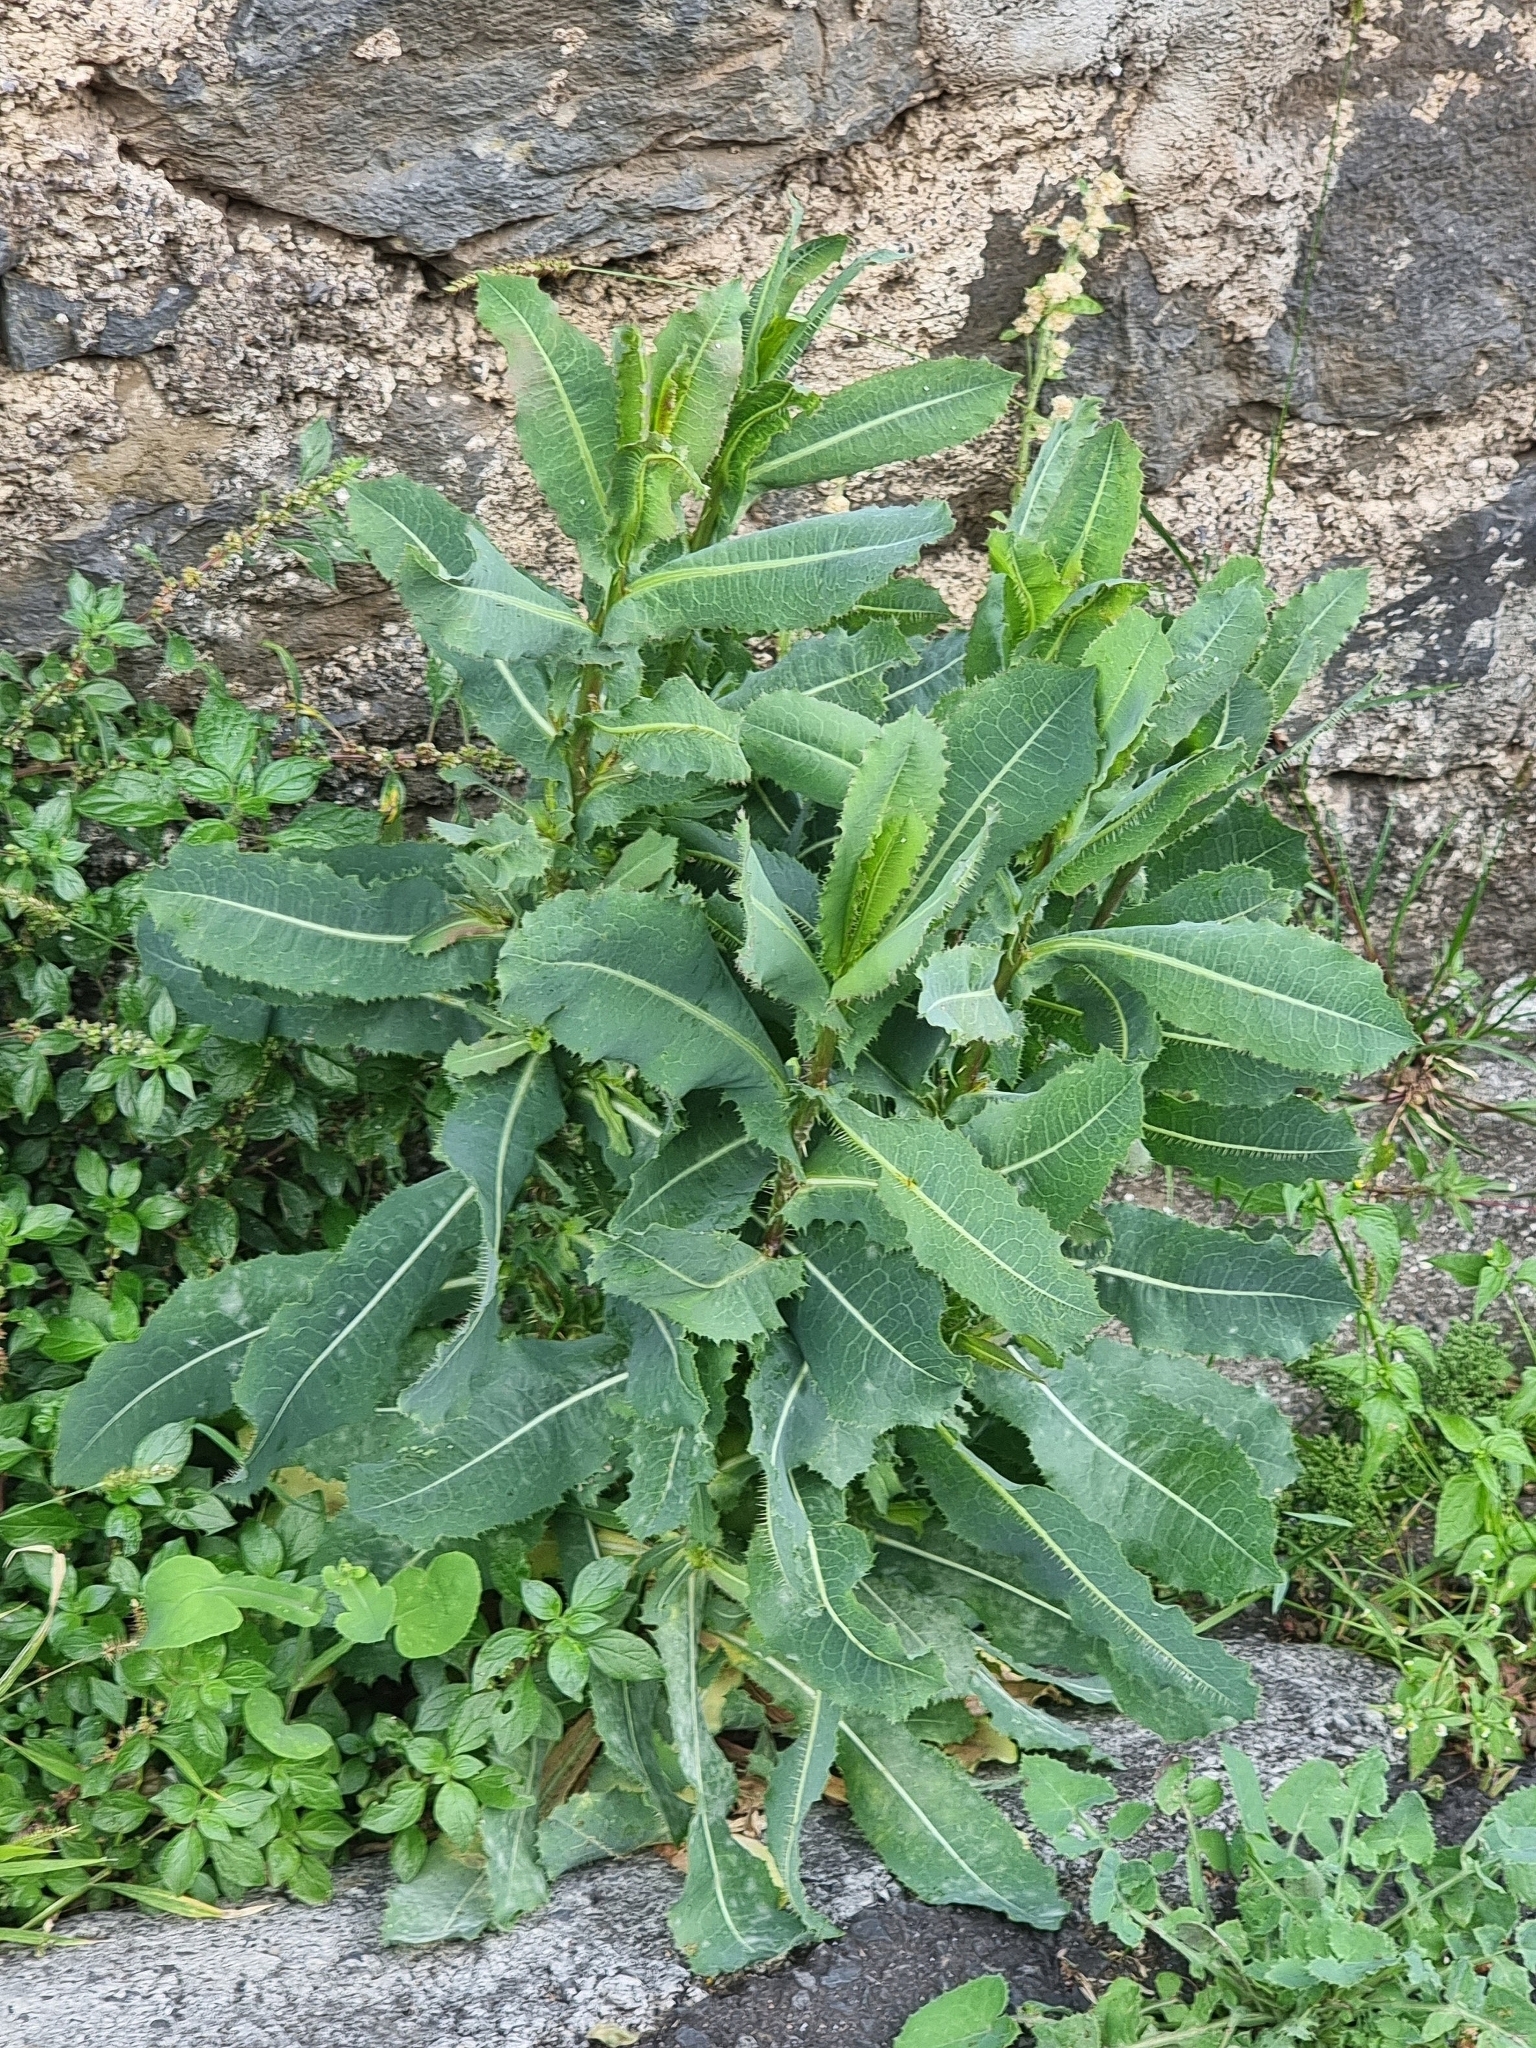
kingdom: Plantae
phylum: Tracheophyta
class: Magnoliopsida
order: Asterales
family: Asteraceae
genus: Lactuca
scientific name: Lactuca serriola
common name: Prickly lettuce
